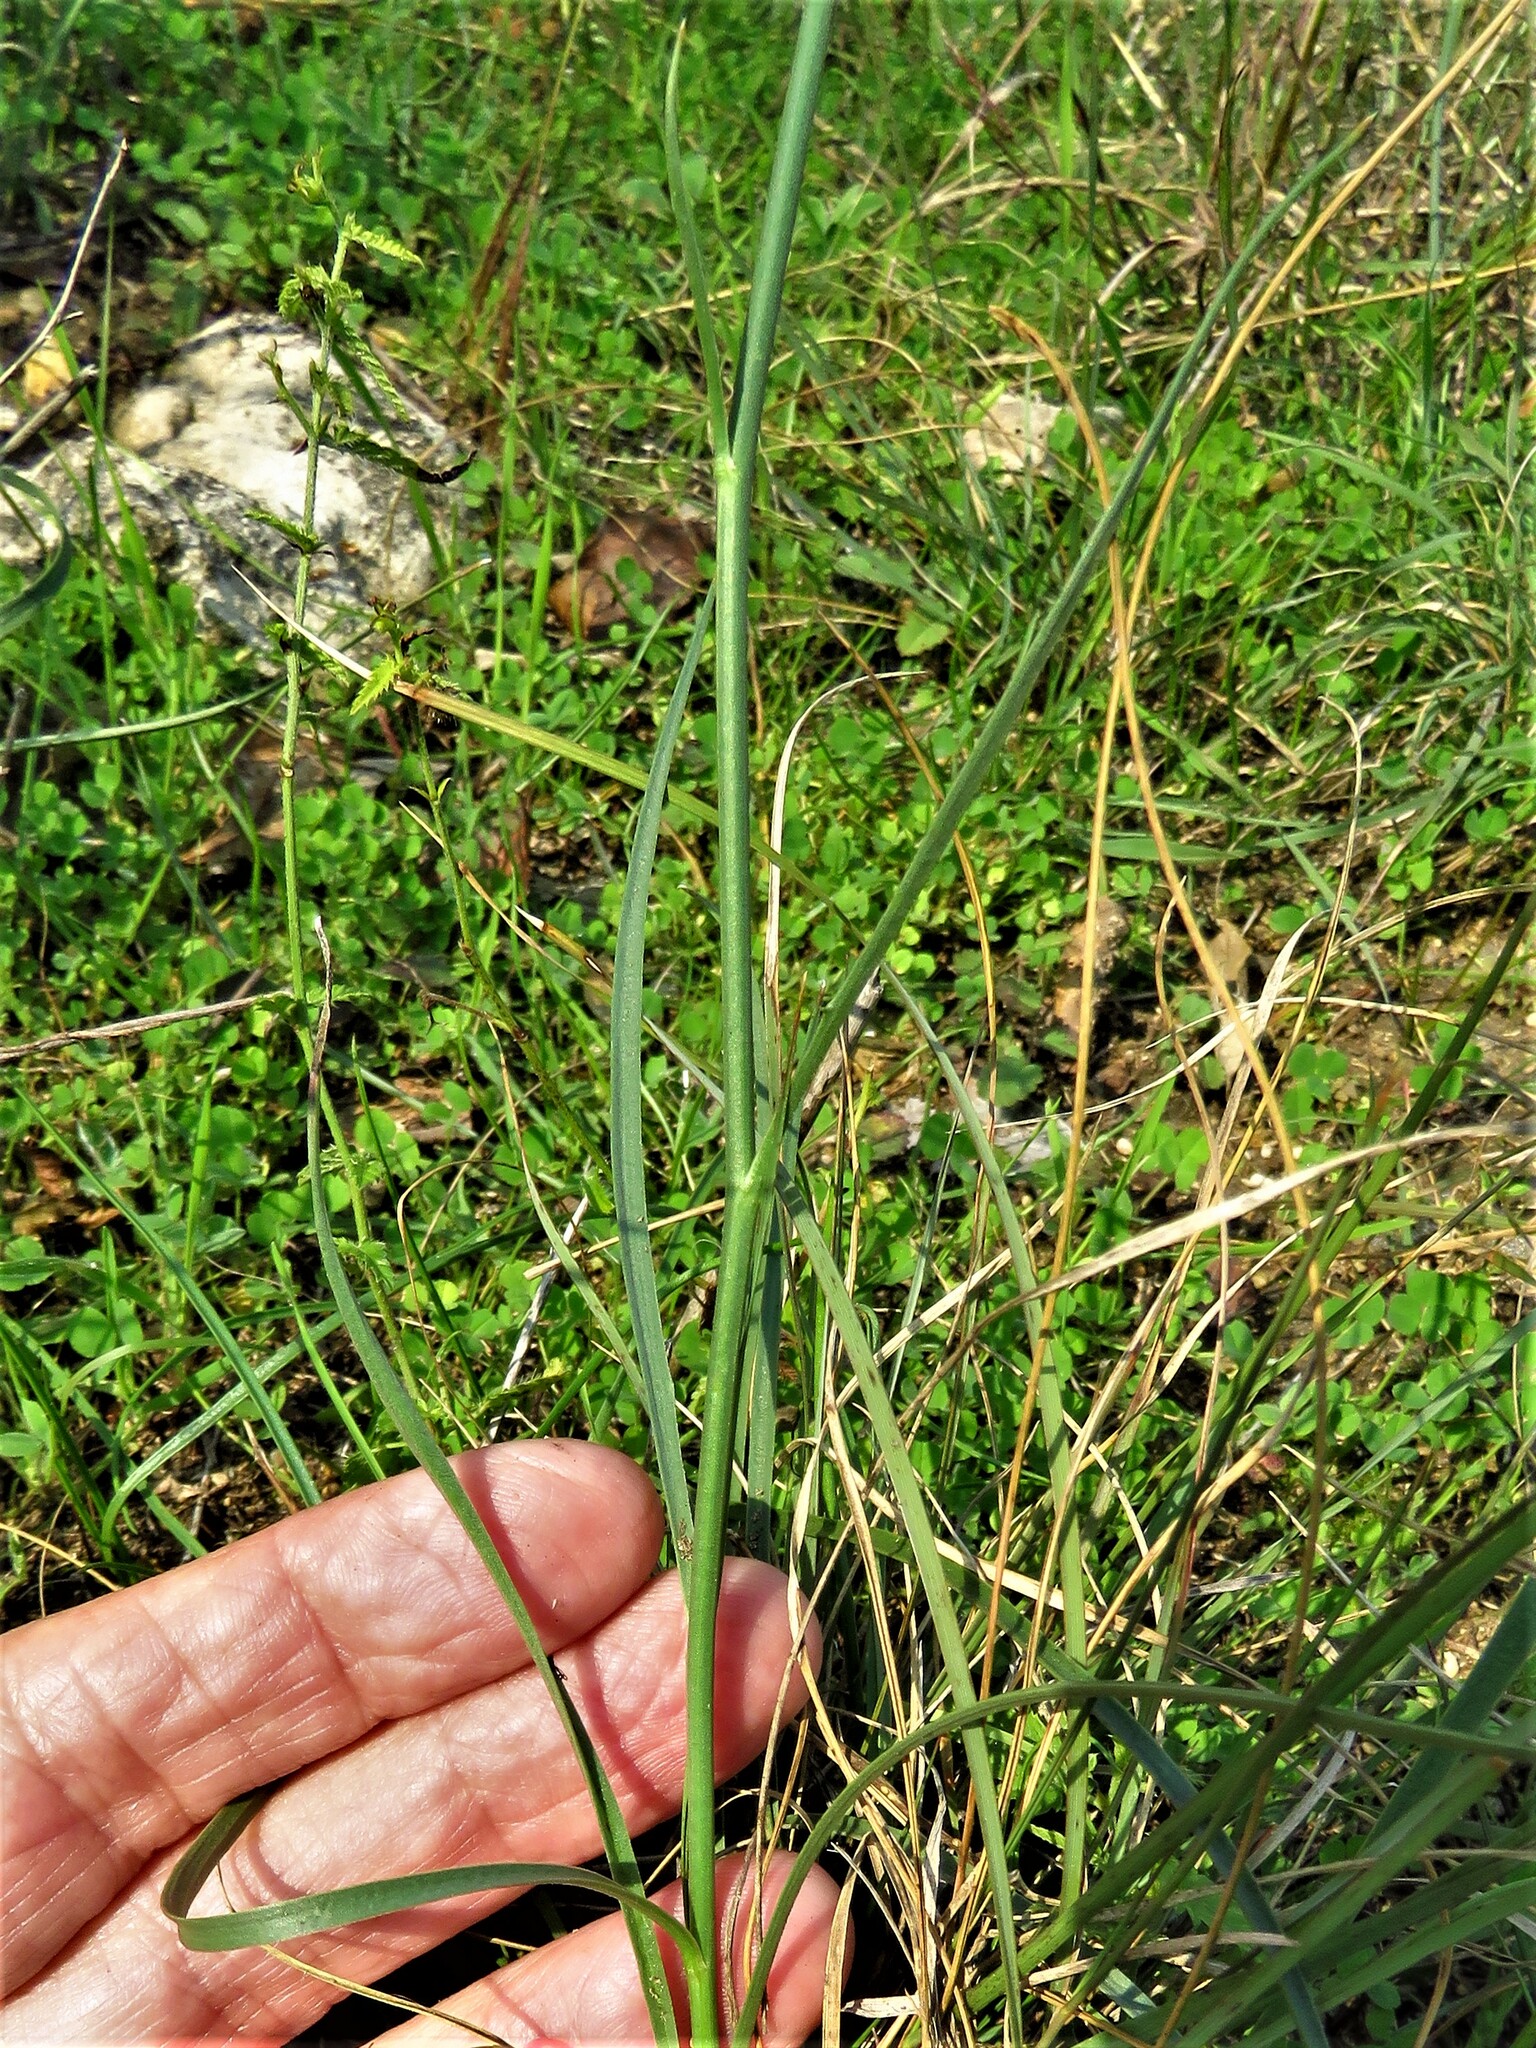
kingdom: Plantae
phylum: Tracheophyta
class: Magnoliopsida
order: Asterales
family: Asteraceae
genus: Lygodesmia
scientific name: Lygodesmia texana
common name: Texas skeleton-plant
